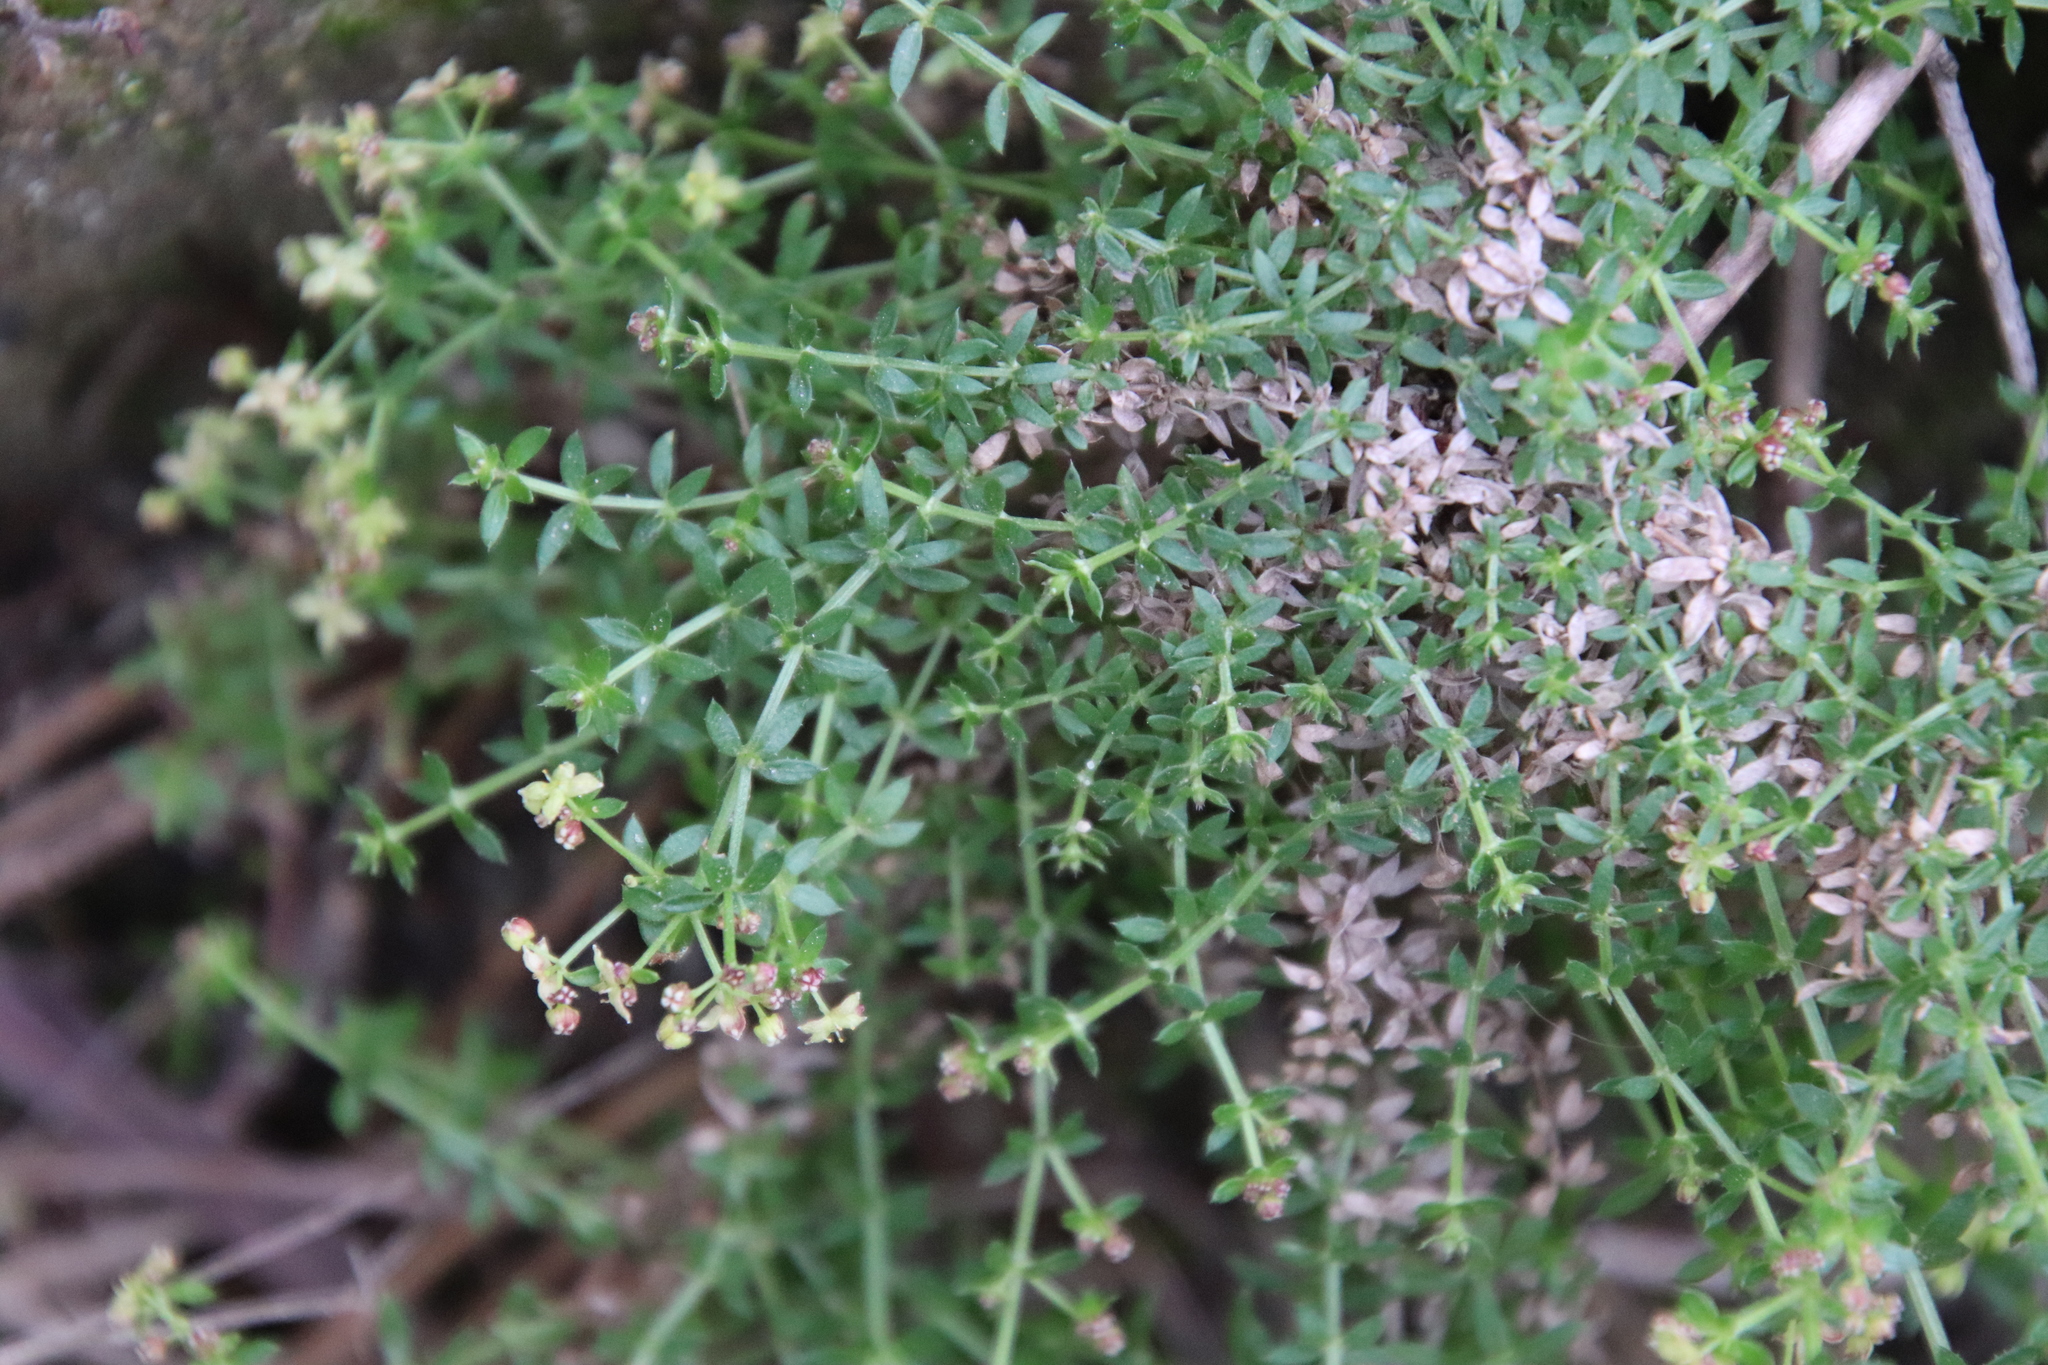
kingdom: Plantae
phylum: Tracheophyta
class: Magnoliopsida
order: Gentianales
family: Rubiaceae
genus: Galium
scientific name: Galium nuttallii
